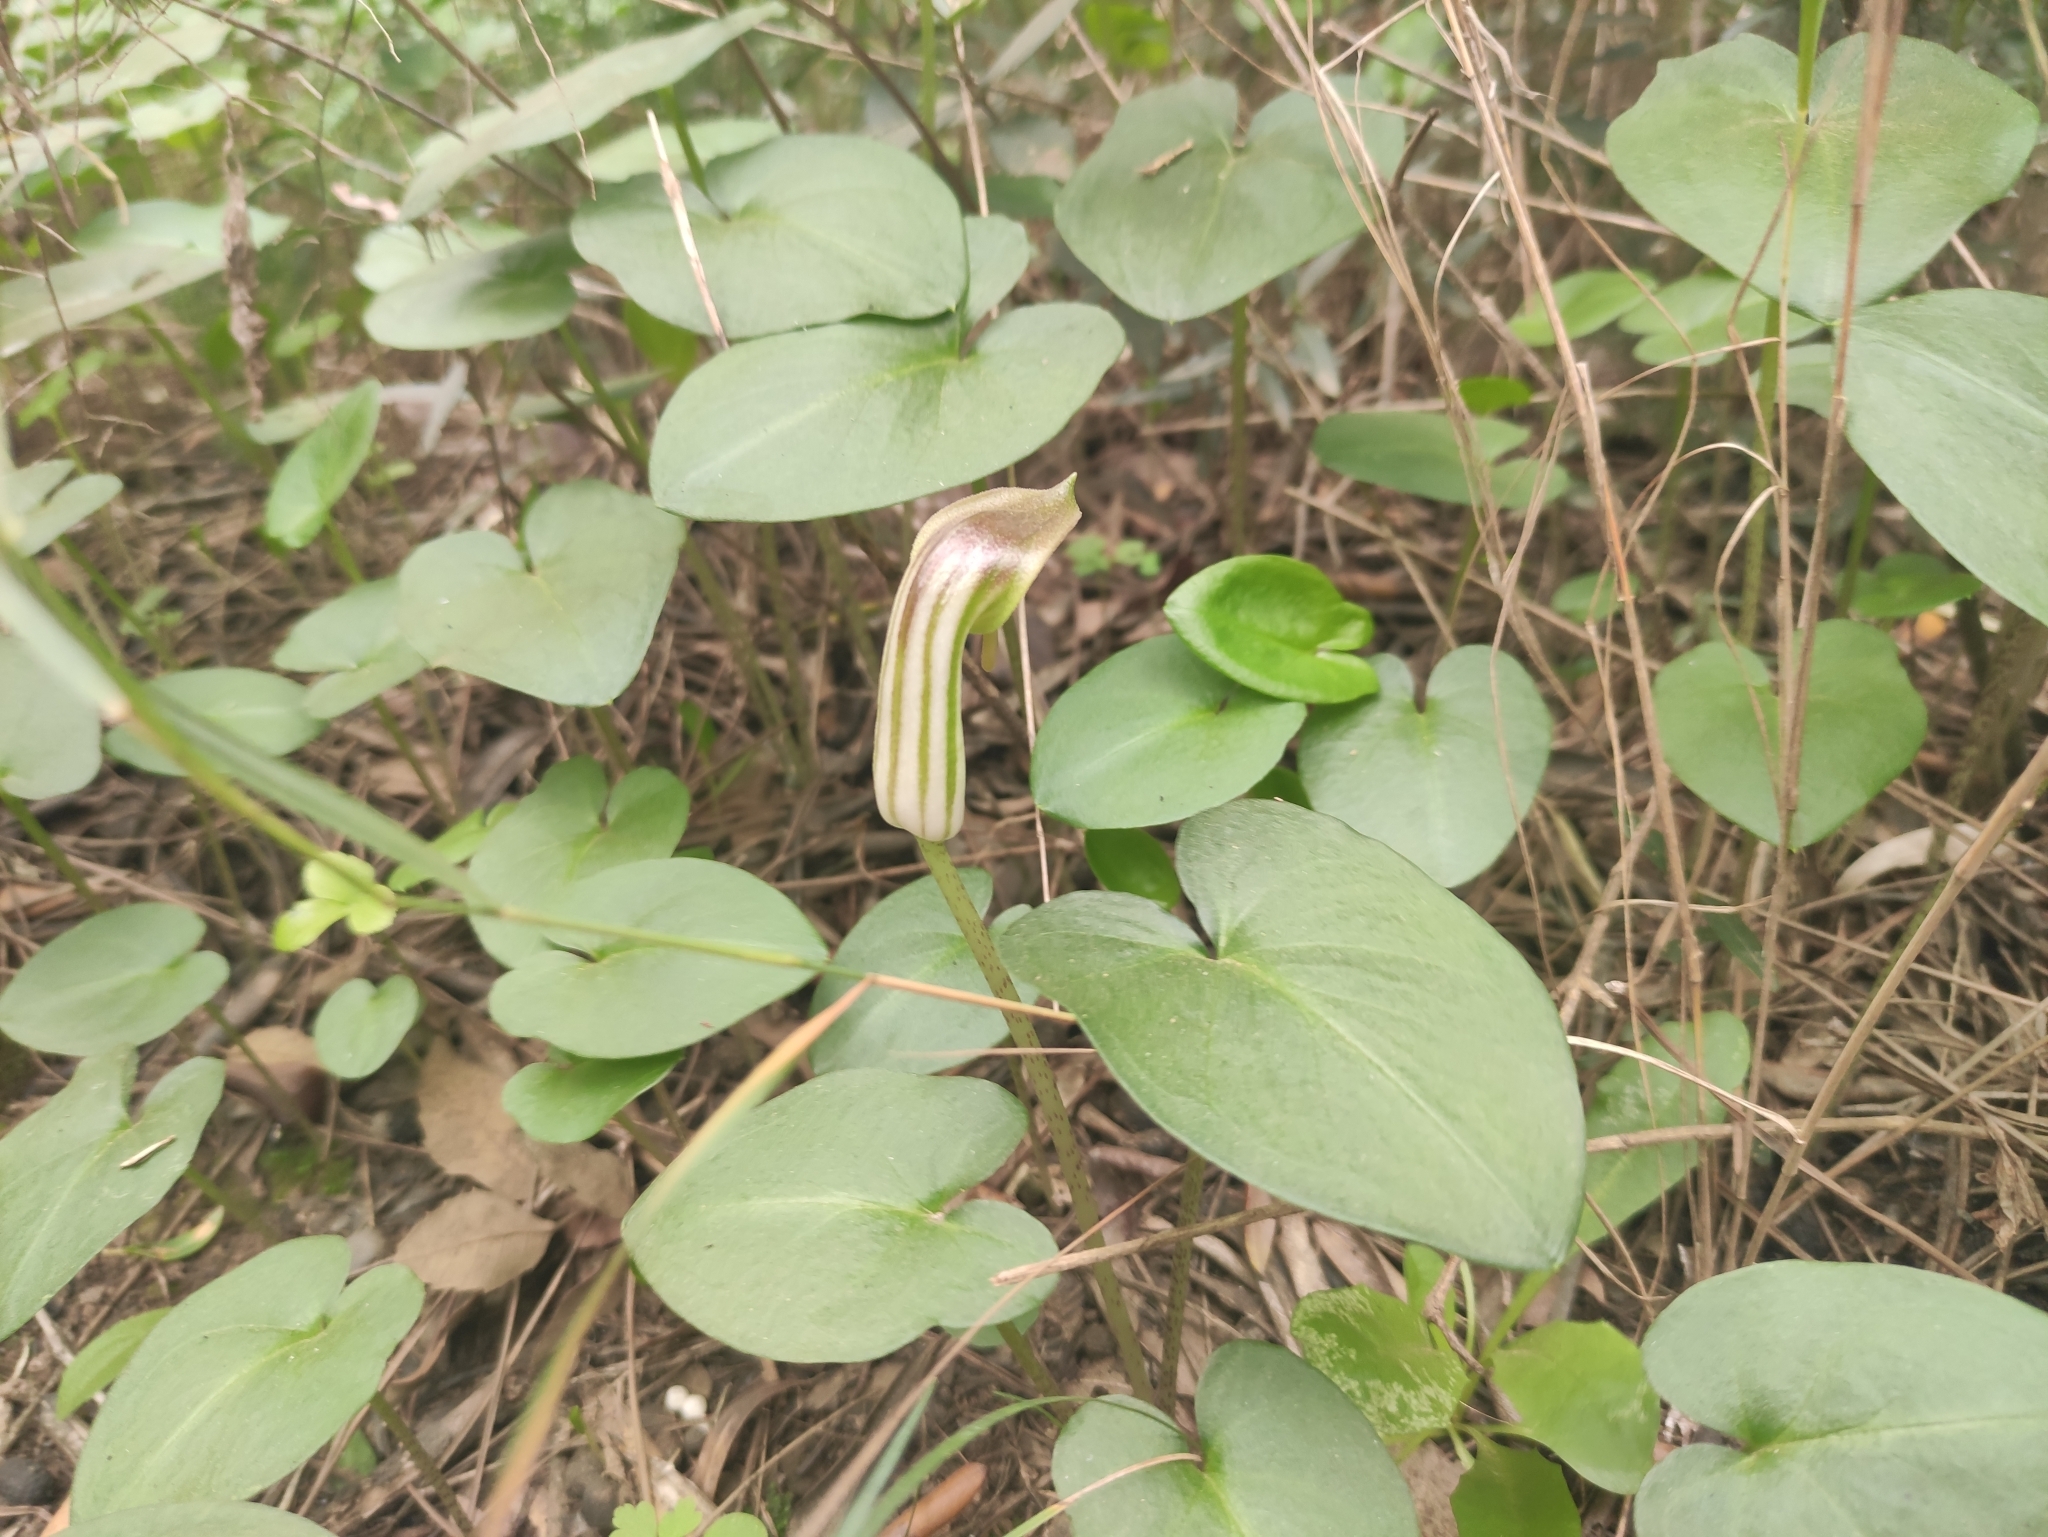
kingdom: Plantae
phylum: Tracheophyta
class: Liliopsida
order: Alismatales
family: Araceae
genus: Arisarum
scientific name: Arisarum vulgare
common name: Common arisarum
